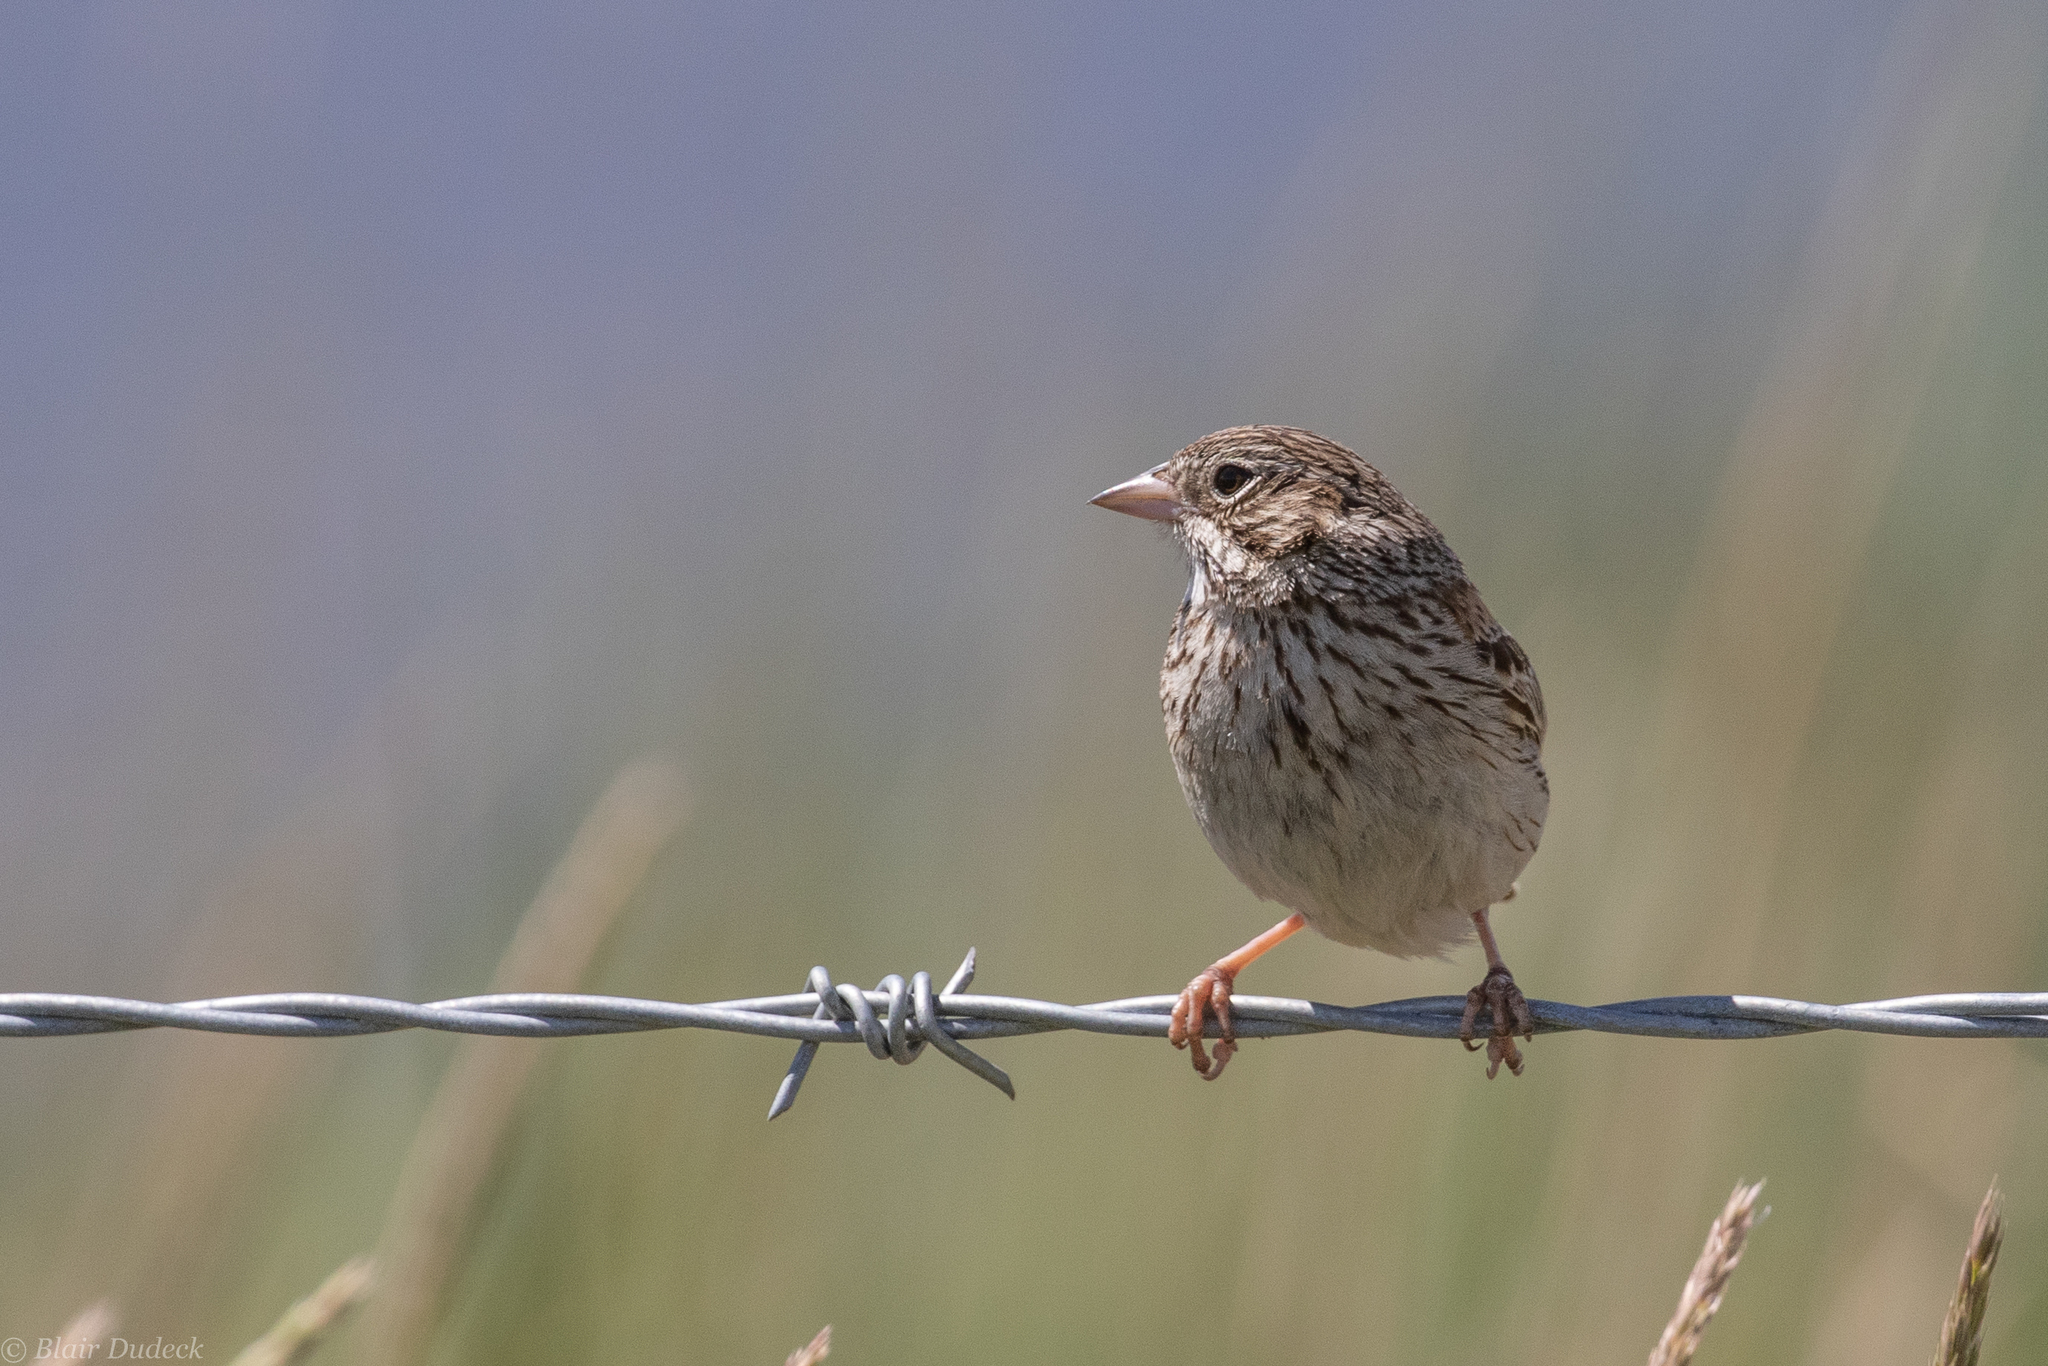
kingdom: Animalia
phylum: Chordata
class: Aves
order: Passeriformes
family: Passerellidae
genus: Pooecetes
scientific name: Pooecetes gramineus
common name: Vesper sparrow
